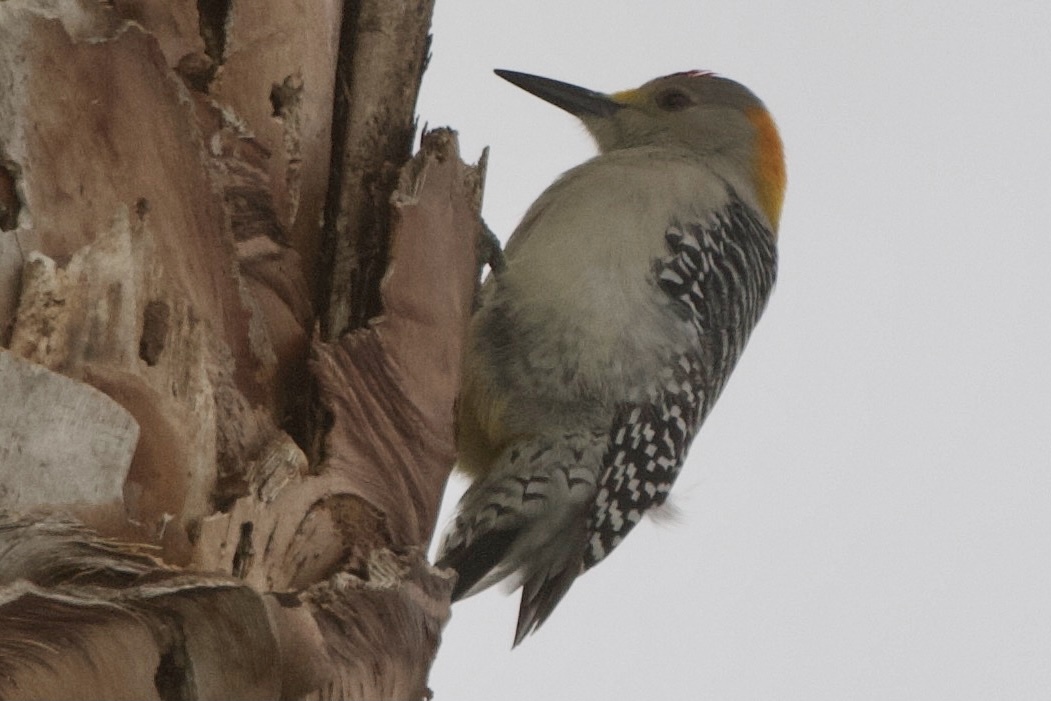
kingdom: Animalia
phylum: Chordata
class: Aves
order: Piciformes
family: Picidae
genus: Melanerpes
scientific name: Melanerpes aurifrons
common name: Golden-fronted woodpecker
